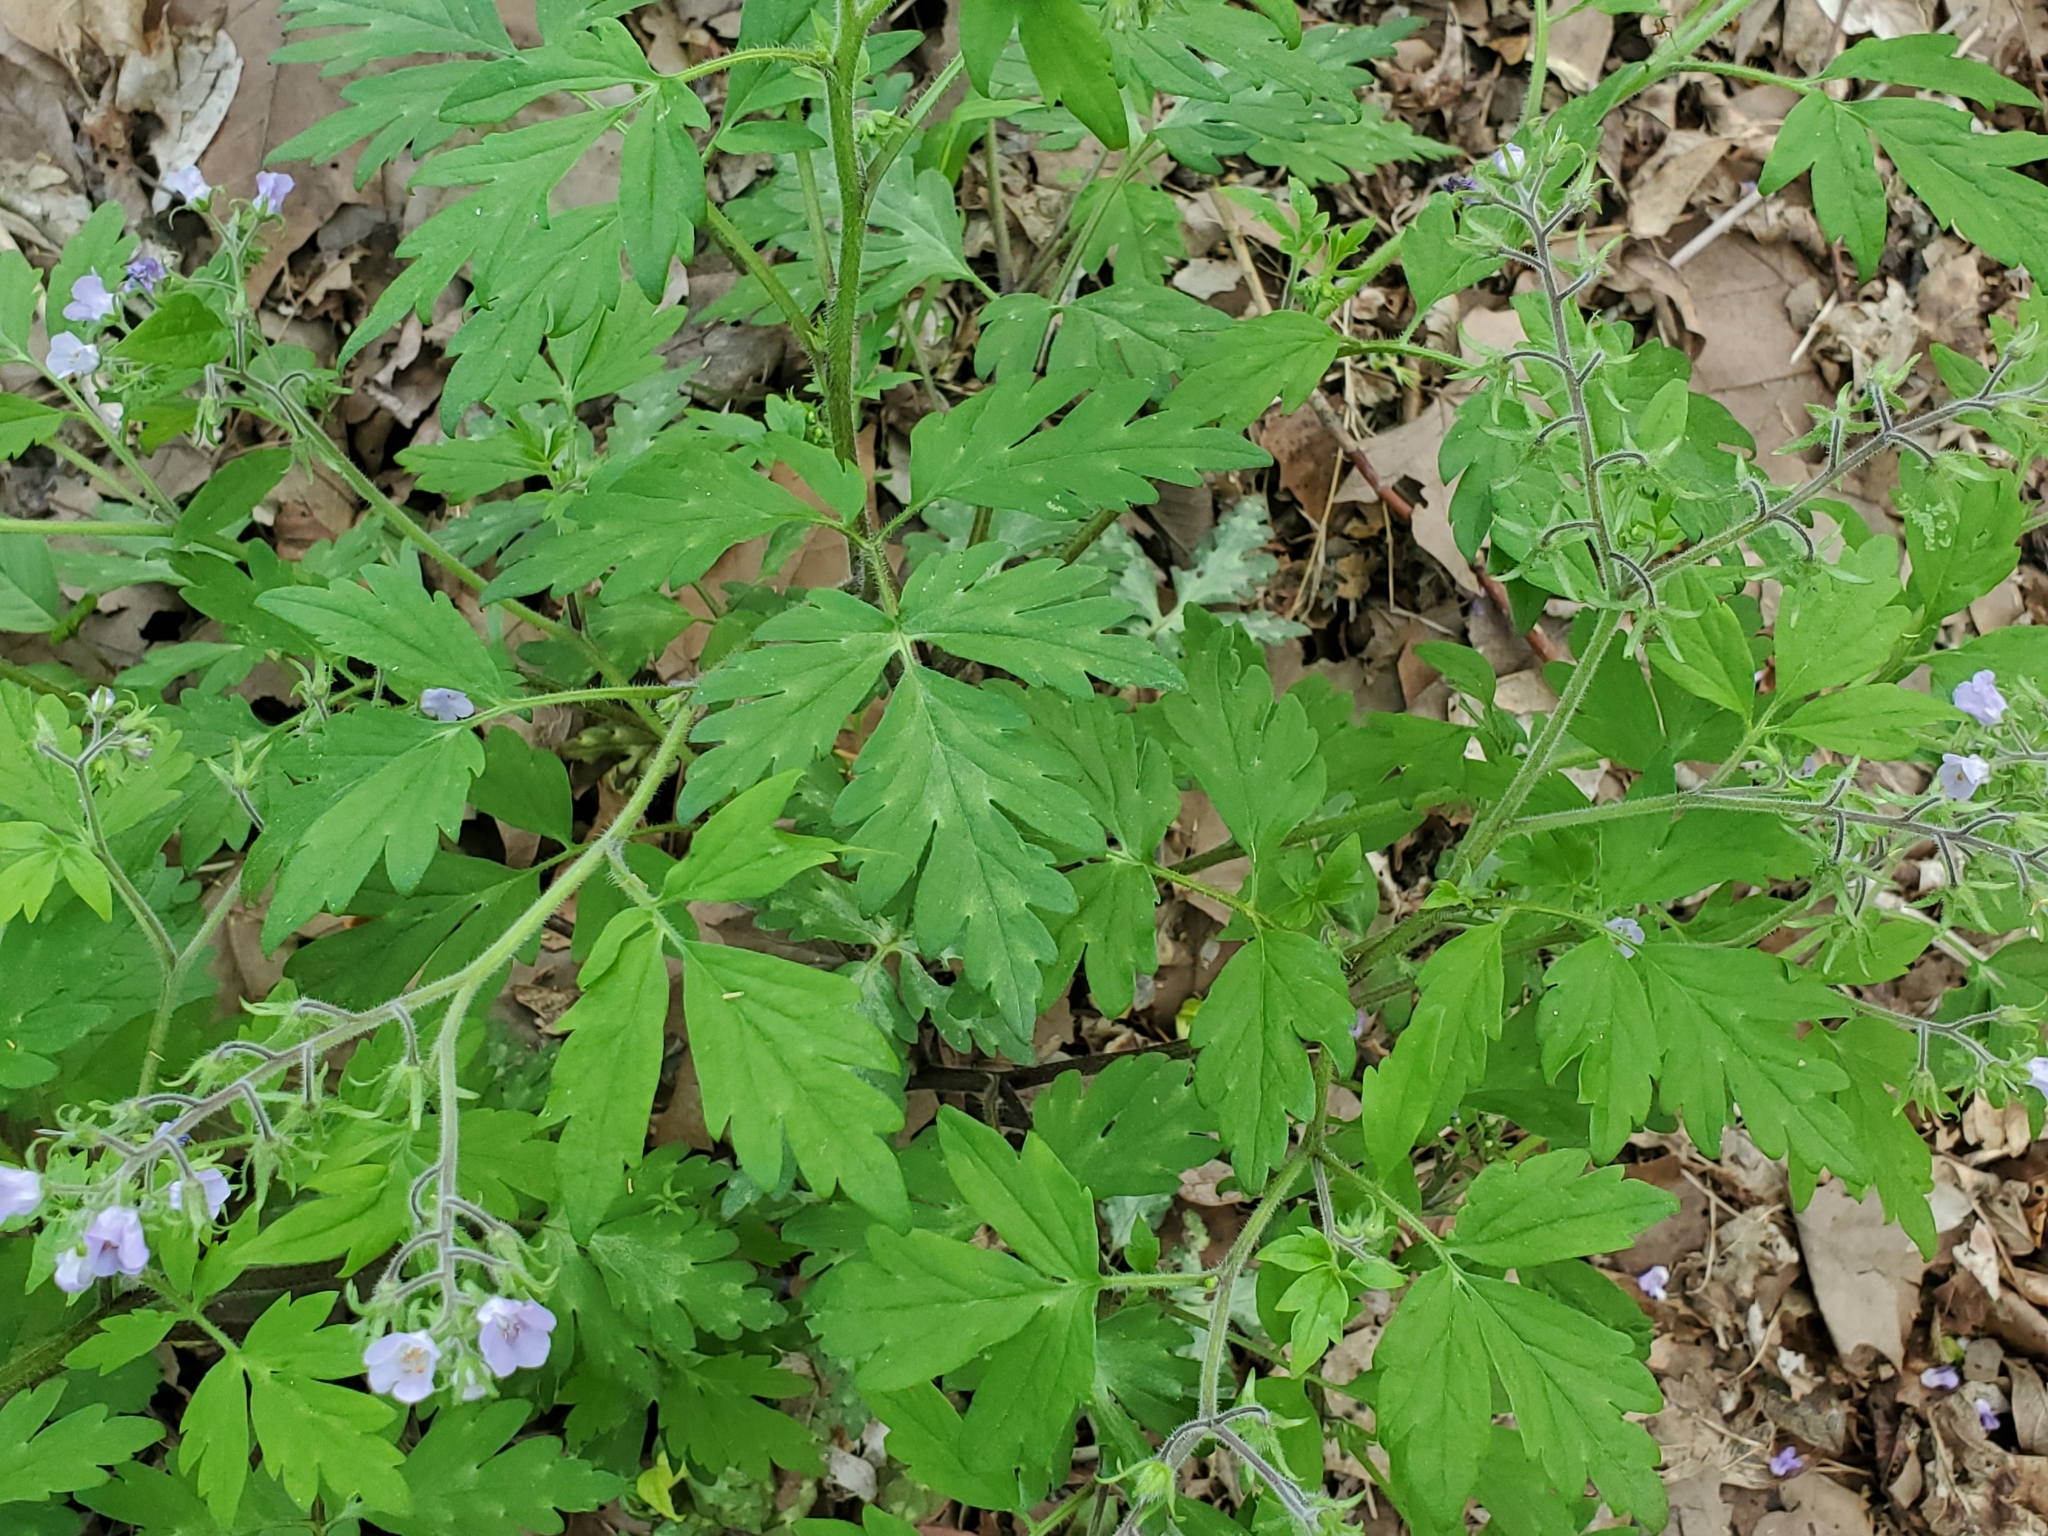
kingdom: Plantae
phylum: Tracheophyta
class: Magnoliopsida
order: Boraginales
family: Hydrophyllaceae
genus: Phacelia
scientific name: Phacelia bipinnatifida
